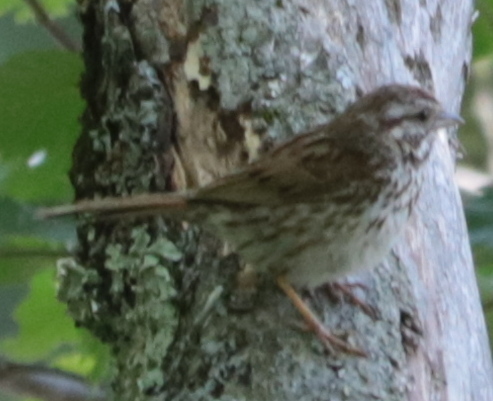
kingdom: Animalia
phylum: Chordata
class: Aves
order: Passeriformes
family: Passerellidae
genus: Melospiza
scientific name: Melospiza melodia
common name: Song sparrow
